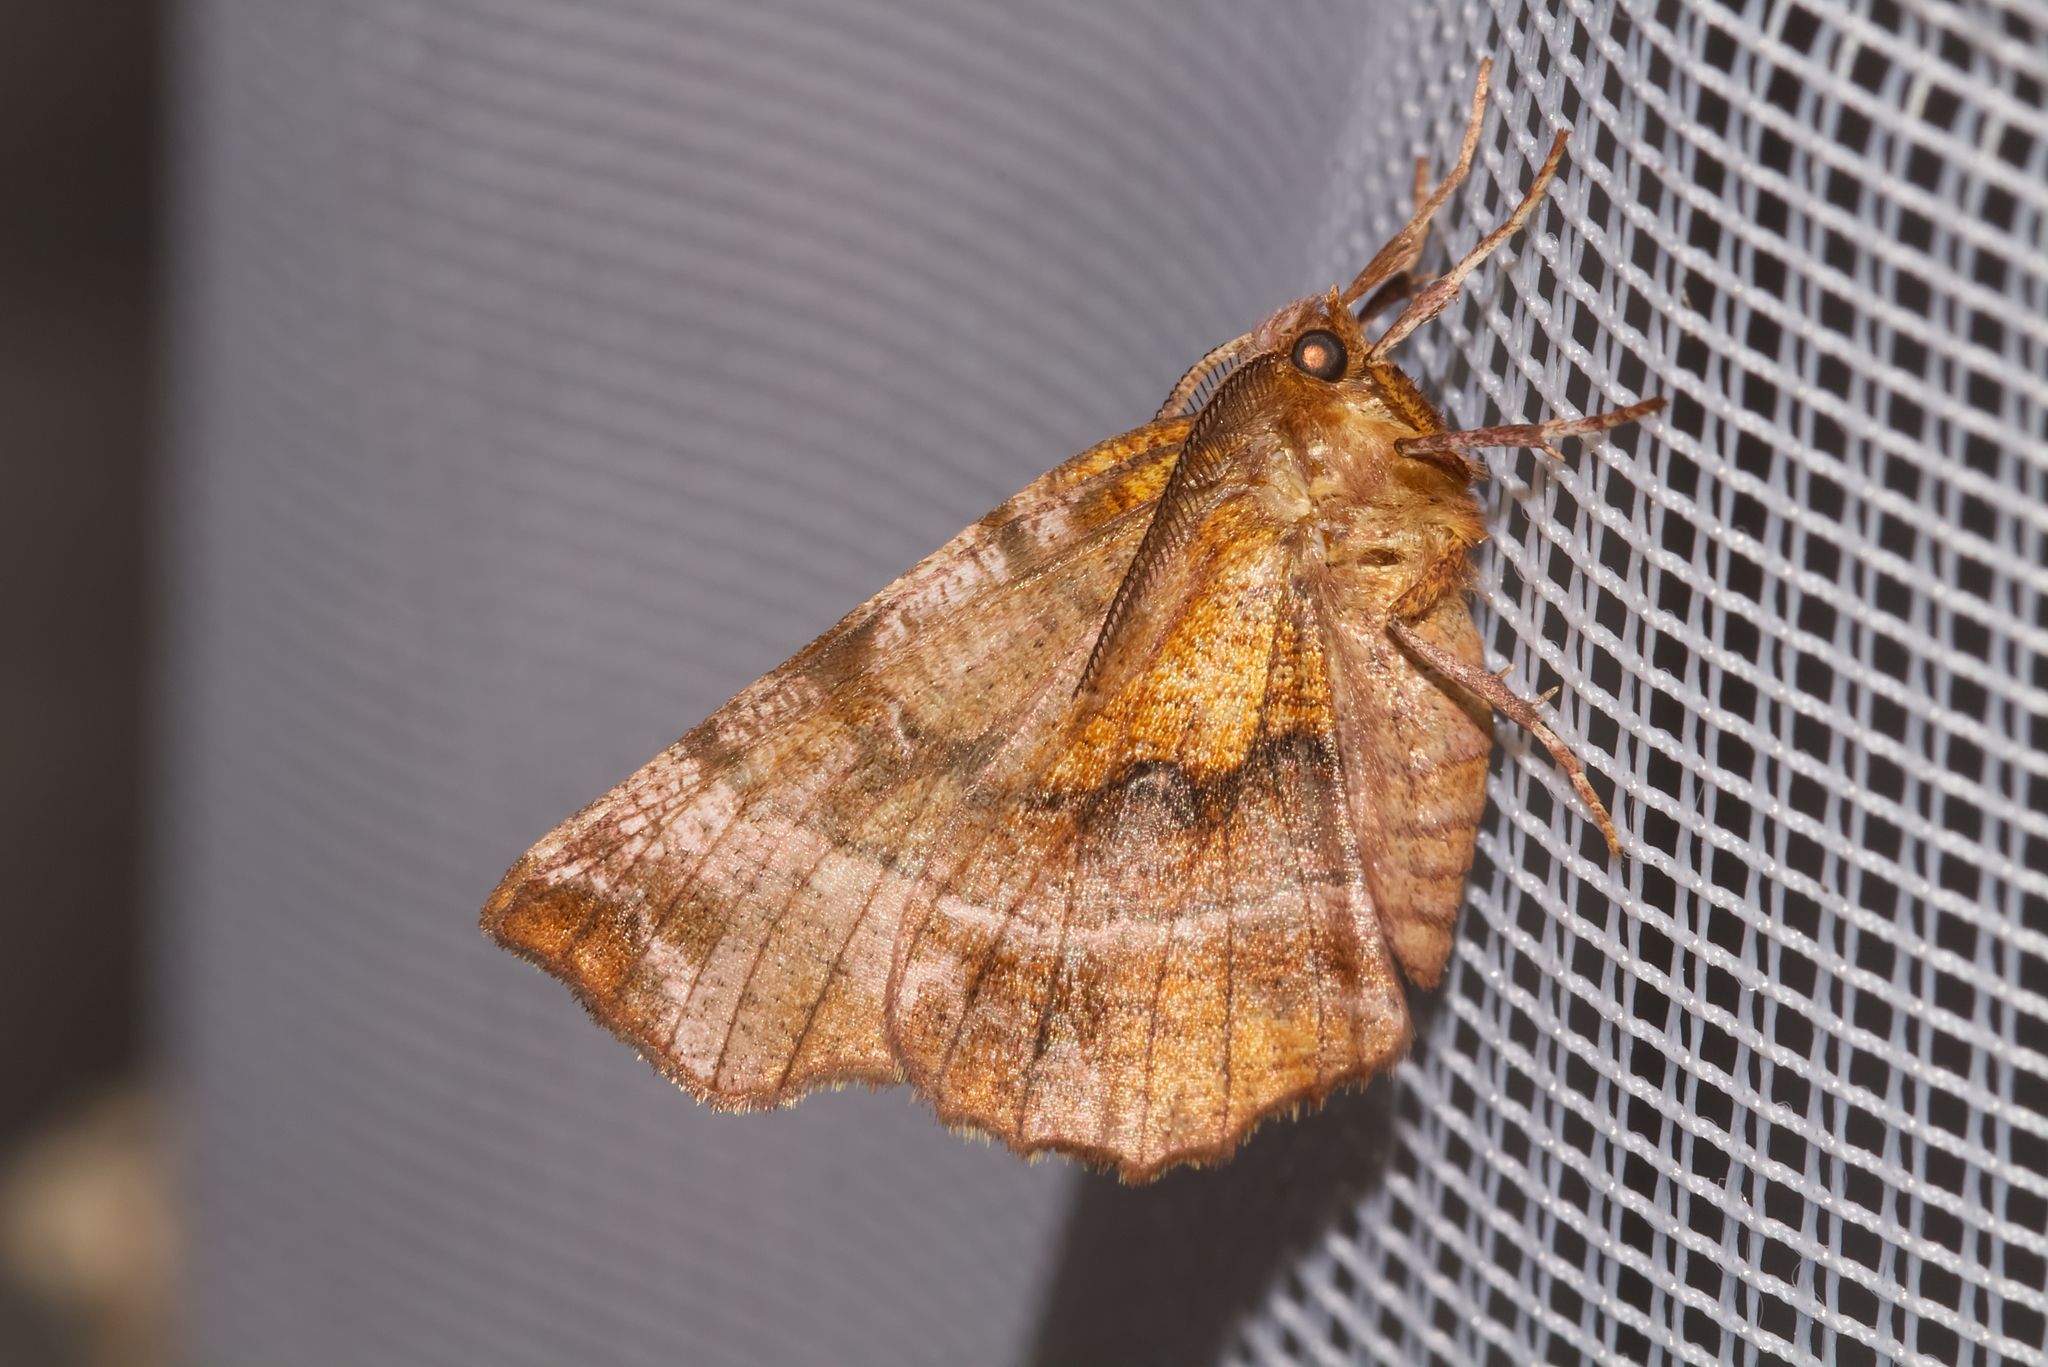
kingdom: Animalia
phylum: Arthropoda
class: Insecta
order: Lepidoptera
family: Geometridae
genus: Selenia
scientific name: Selenia dentaria
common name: Early thorn
